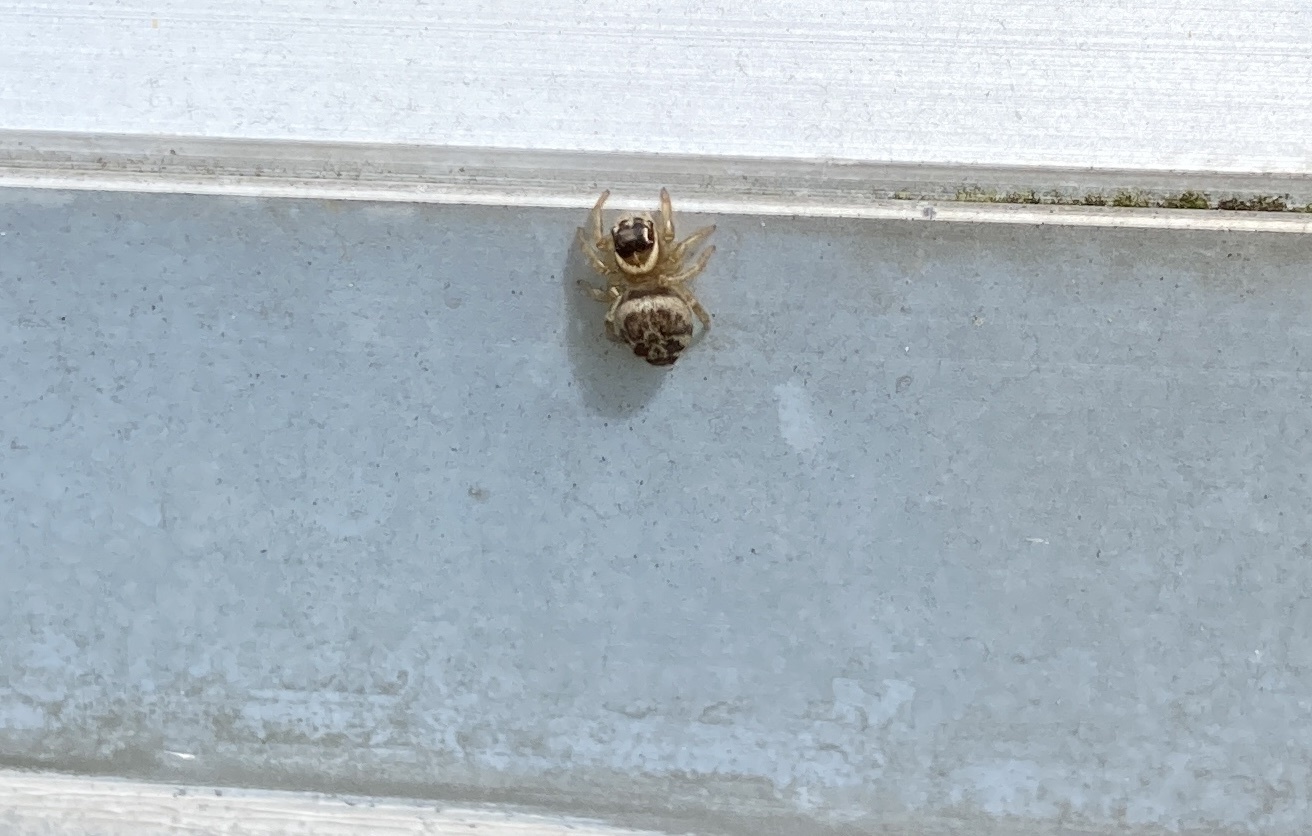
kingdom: Animalia
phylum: Arthropoda
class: Arachnida
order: Araneae
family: Salticidae
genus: Maratus
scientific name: Maratus griseus
